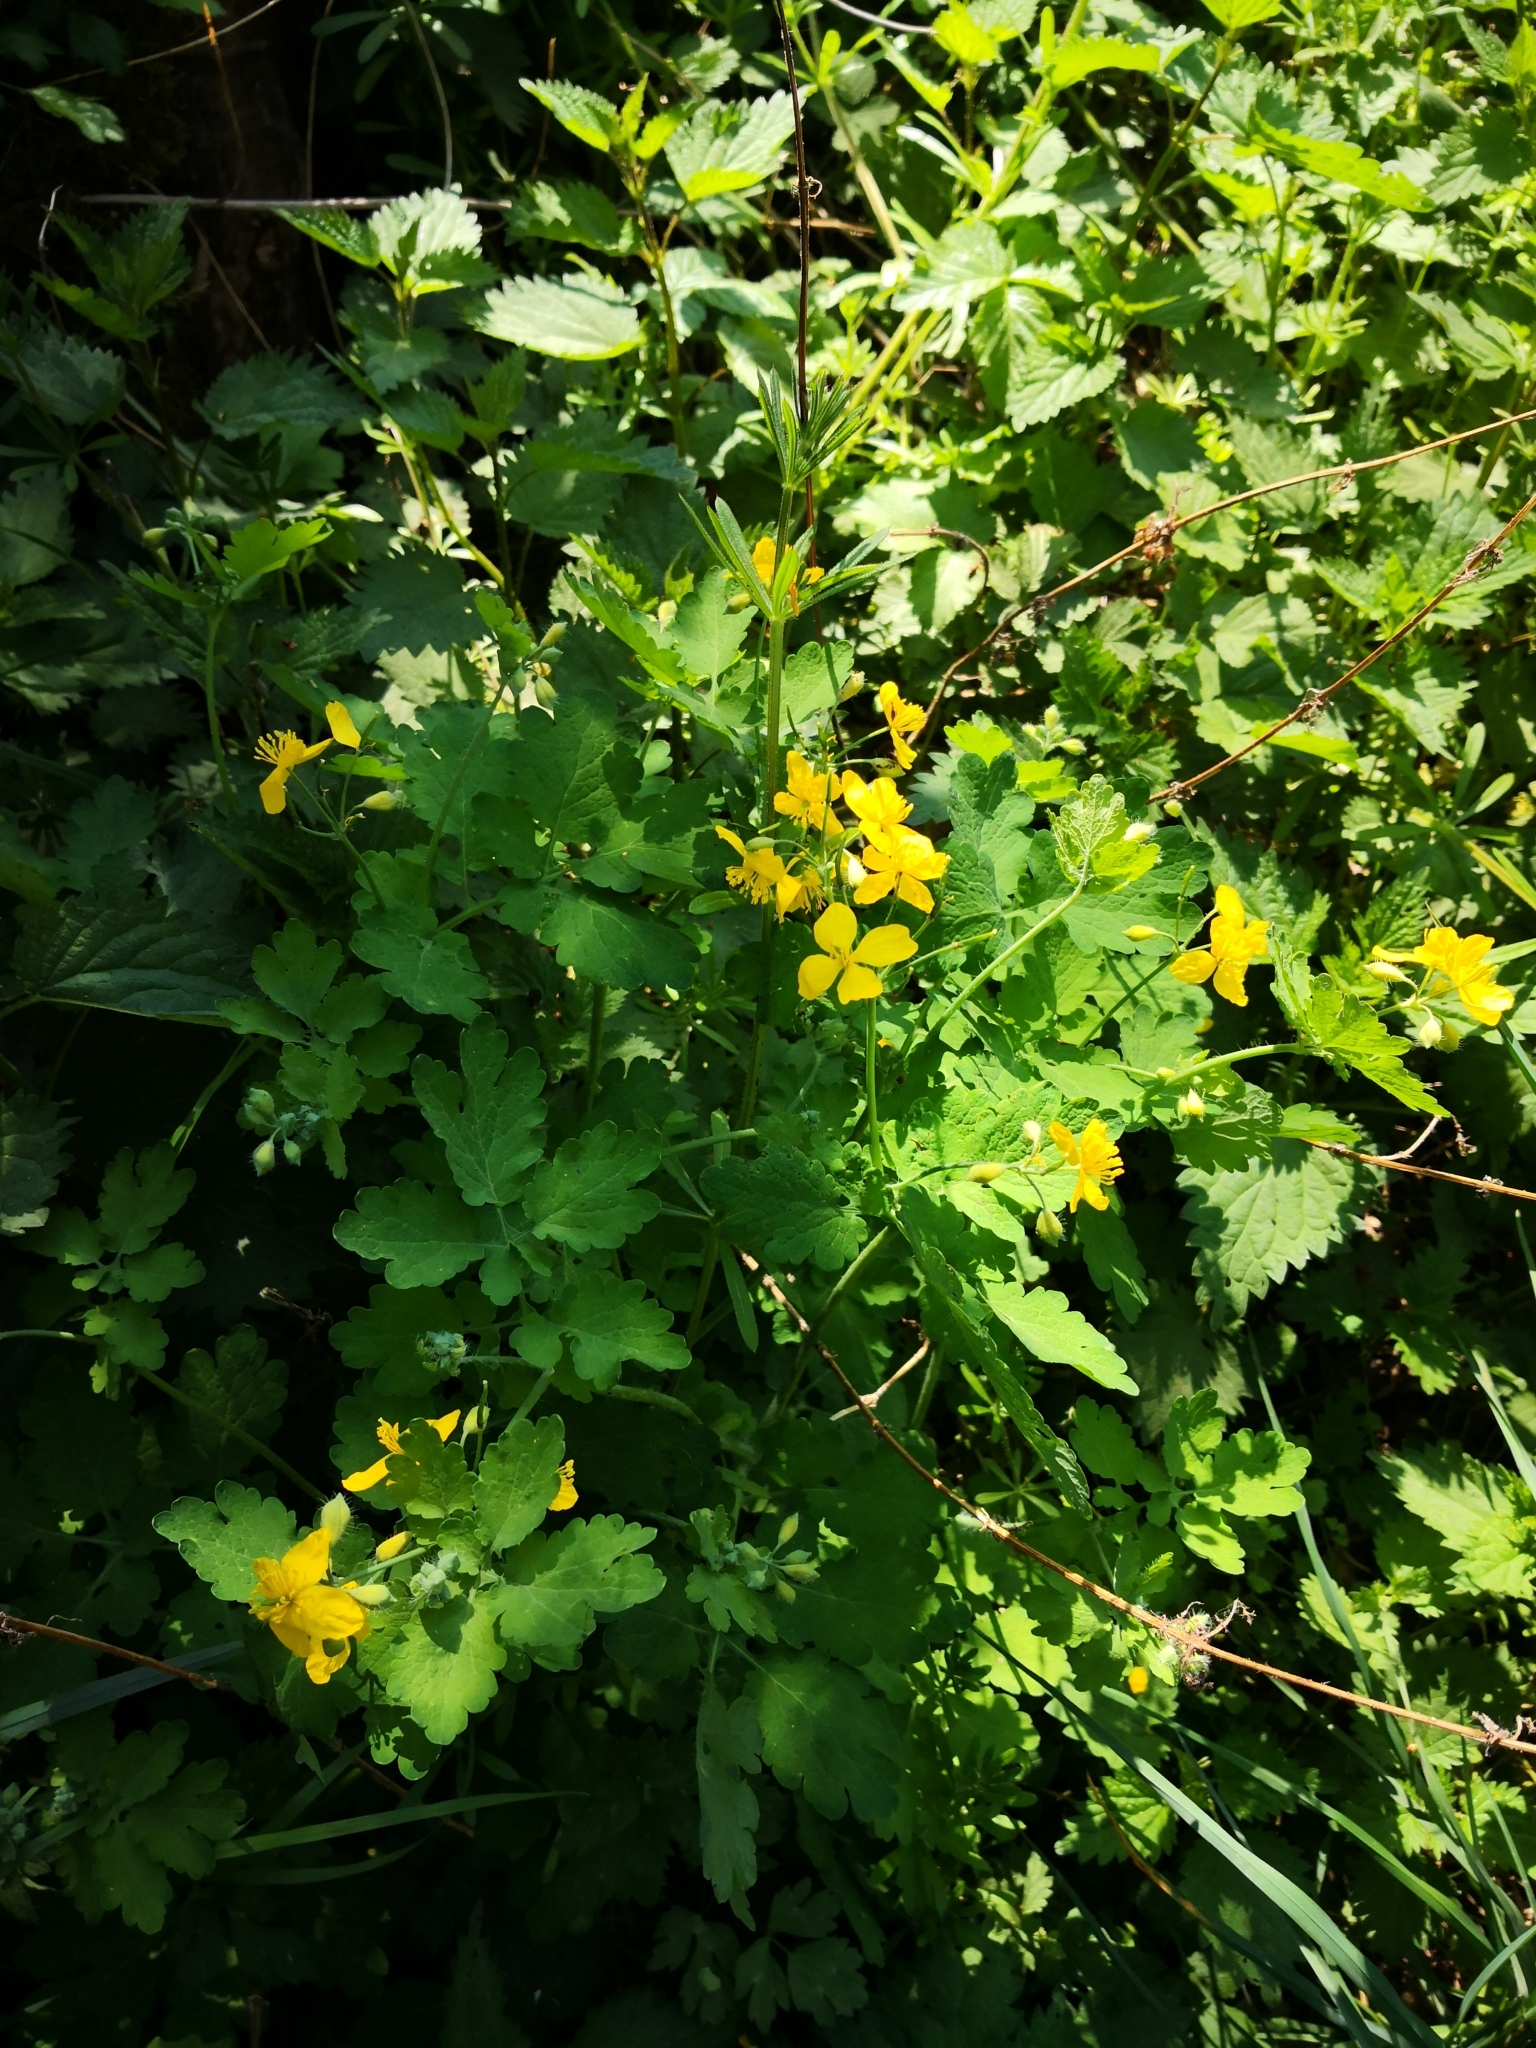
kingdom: Plantae
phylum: Tracheophyta
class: Magnoliopsida
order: Ranunculales
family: Papaveraceae
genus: Chelidonium
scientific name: Chelidonium majus
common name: Greater celandine
